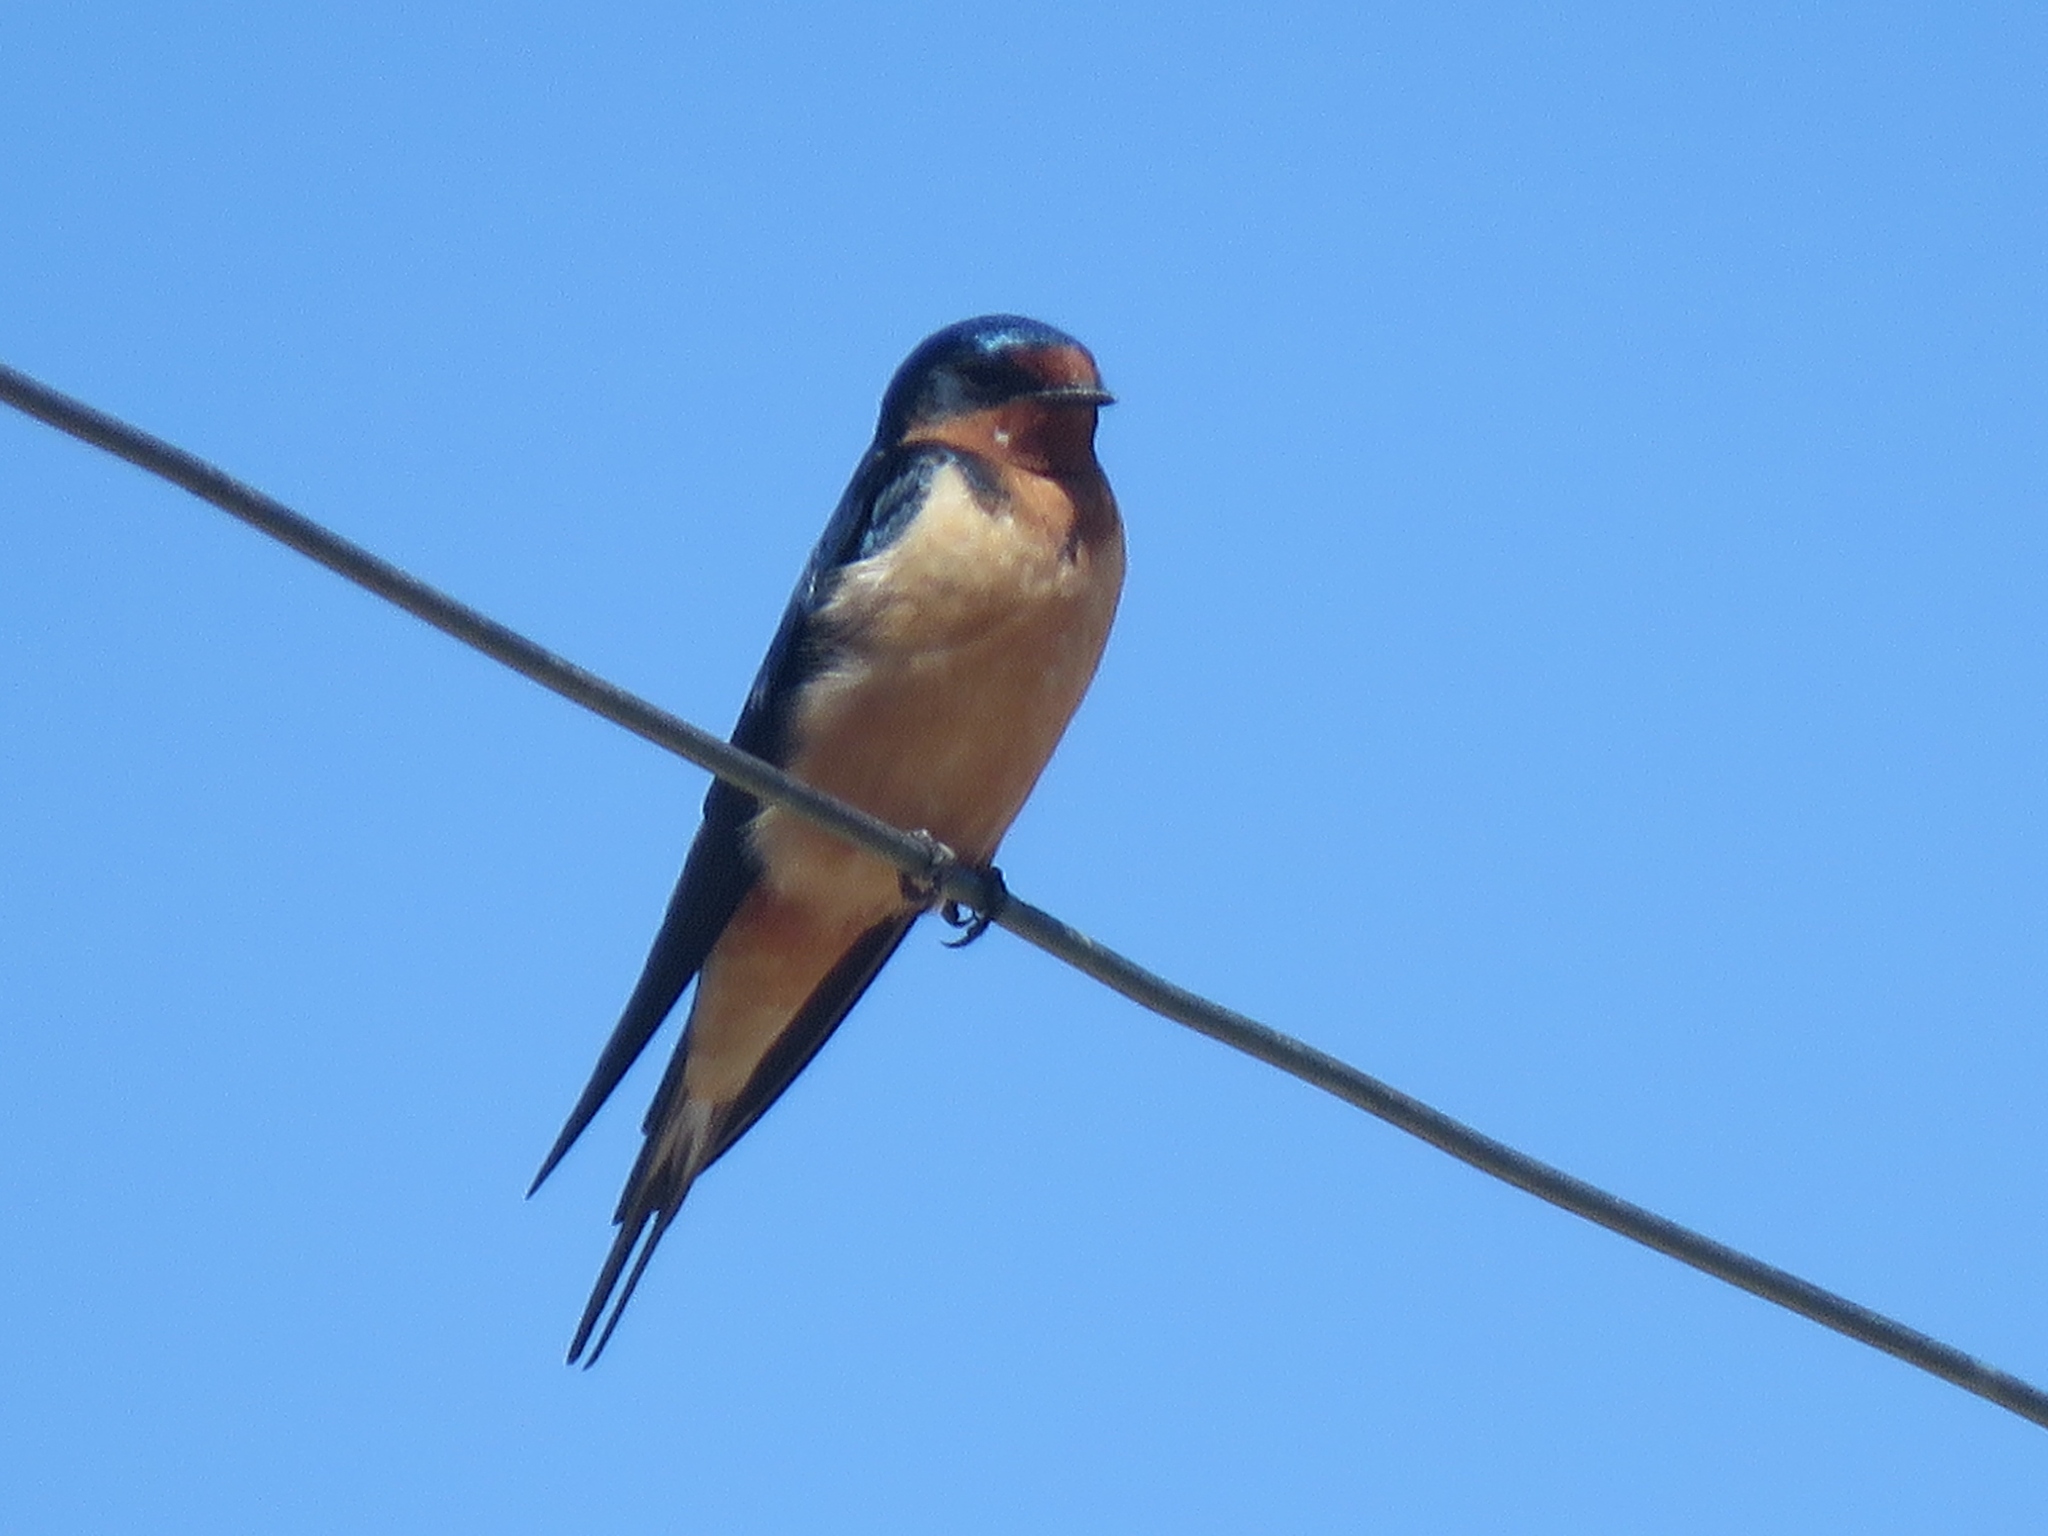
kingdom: Animalia
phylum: Chordata
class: Aves
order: Passeriformes
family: Hirundinidae
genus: Hirundo
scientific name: Hirundo rustica
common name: Barn swallow
